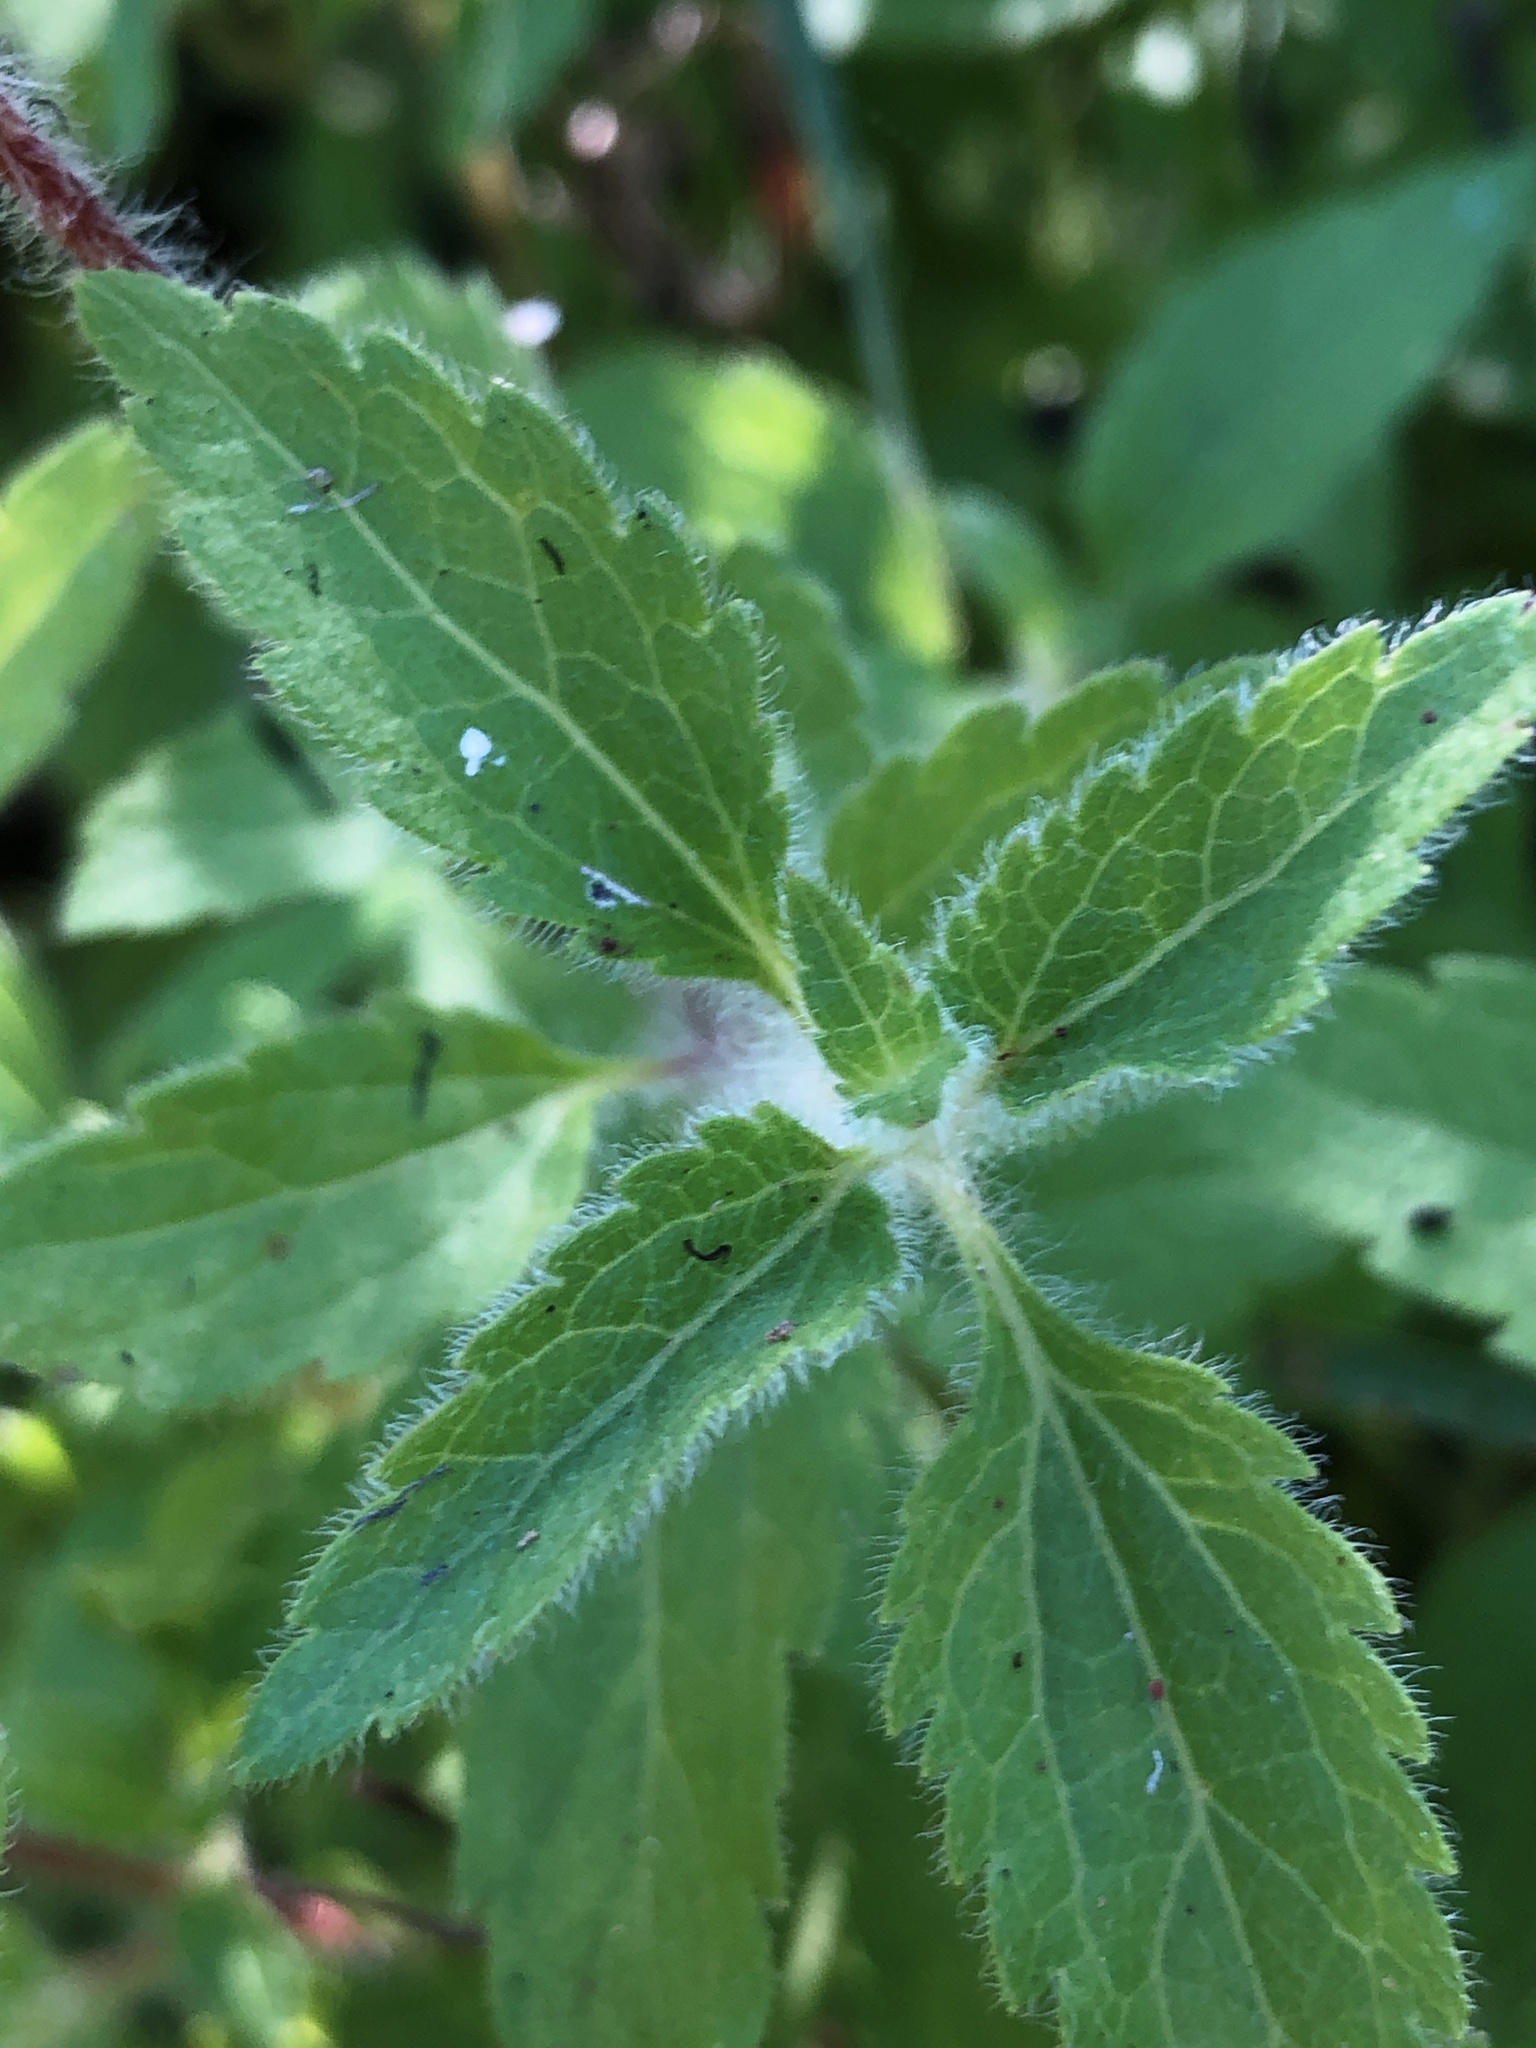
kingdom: Plantae
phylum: Tracheophyta
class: Magnoliopsida
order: Asterales
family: Asteraceae
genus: Praxelis
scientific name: Praxelis clematidea
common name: Praxelis
